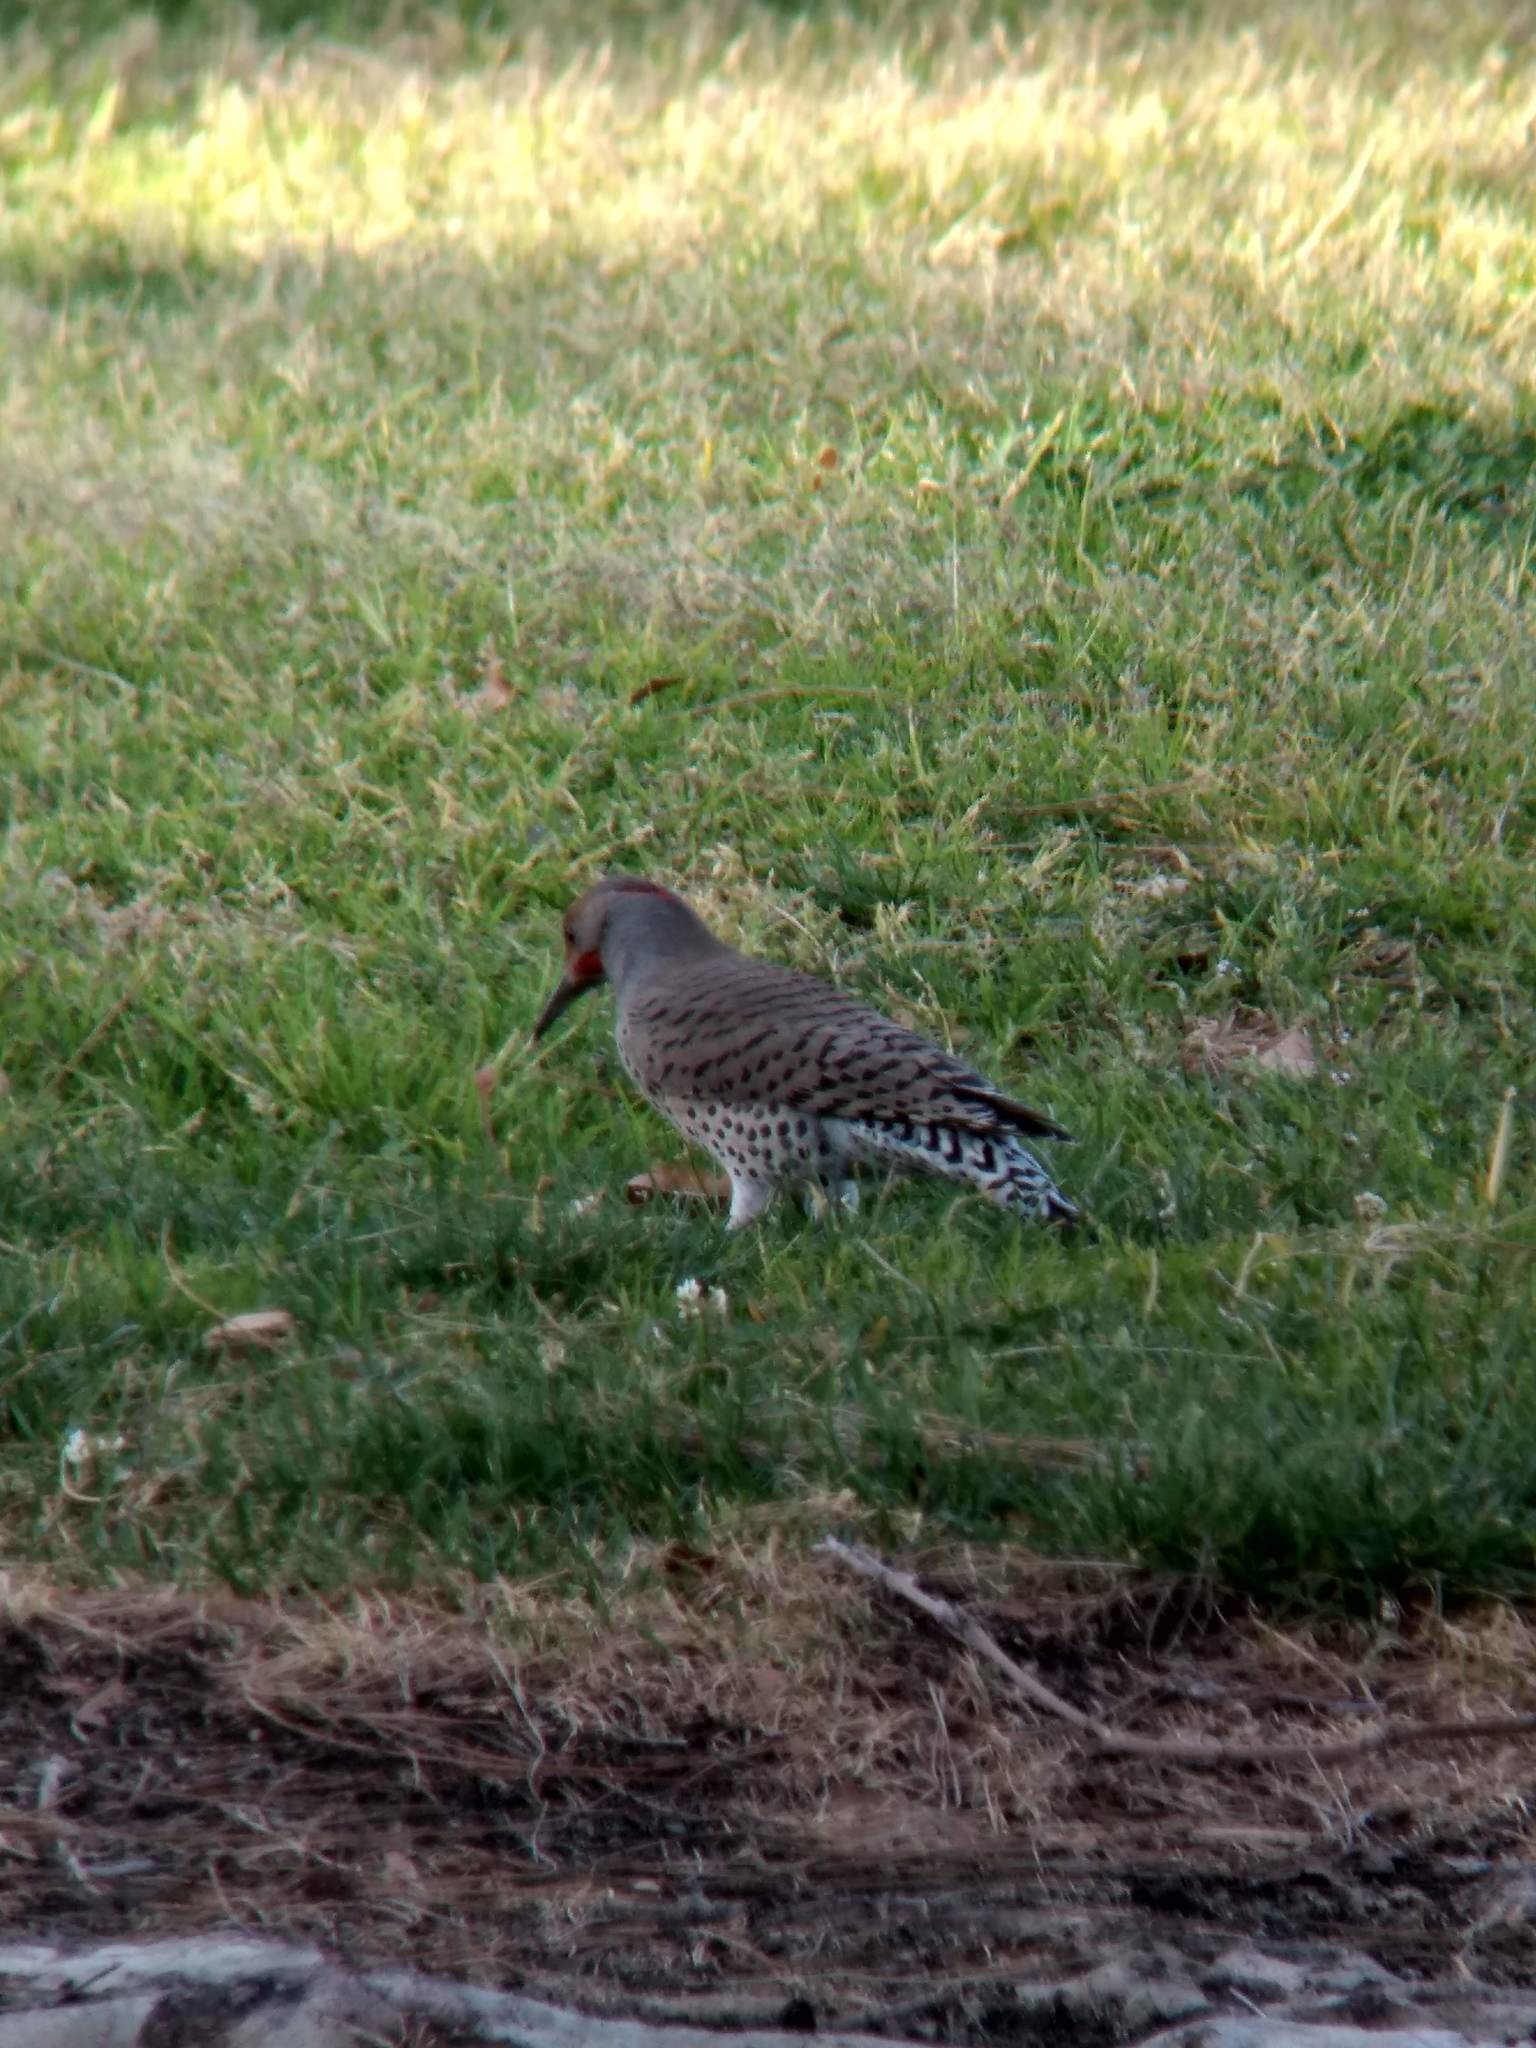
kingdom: Animalia
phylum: Chordata
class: Aves
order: Piciformes
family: Picidae
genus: Colaptes
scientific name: Colaptes auratus
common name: Northern flicker
